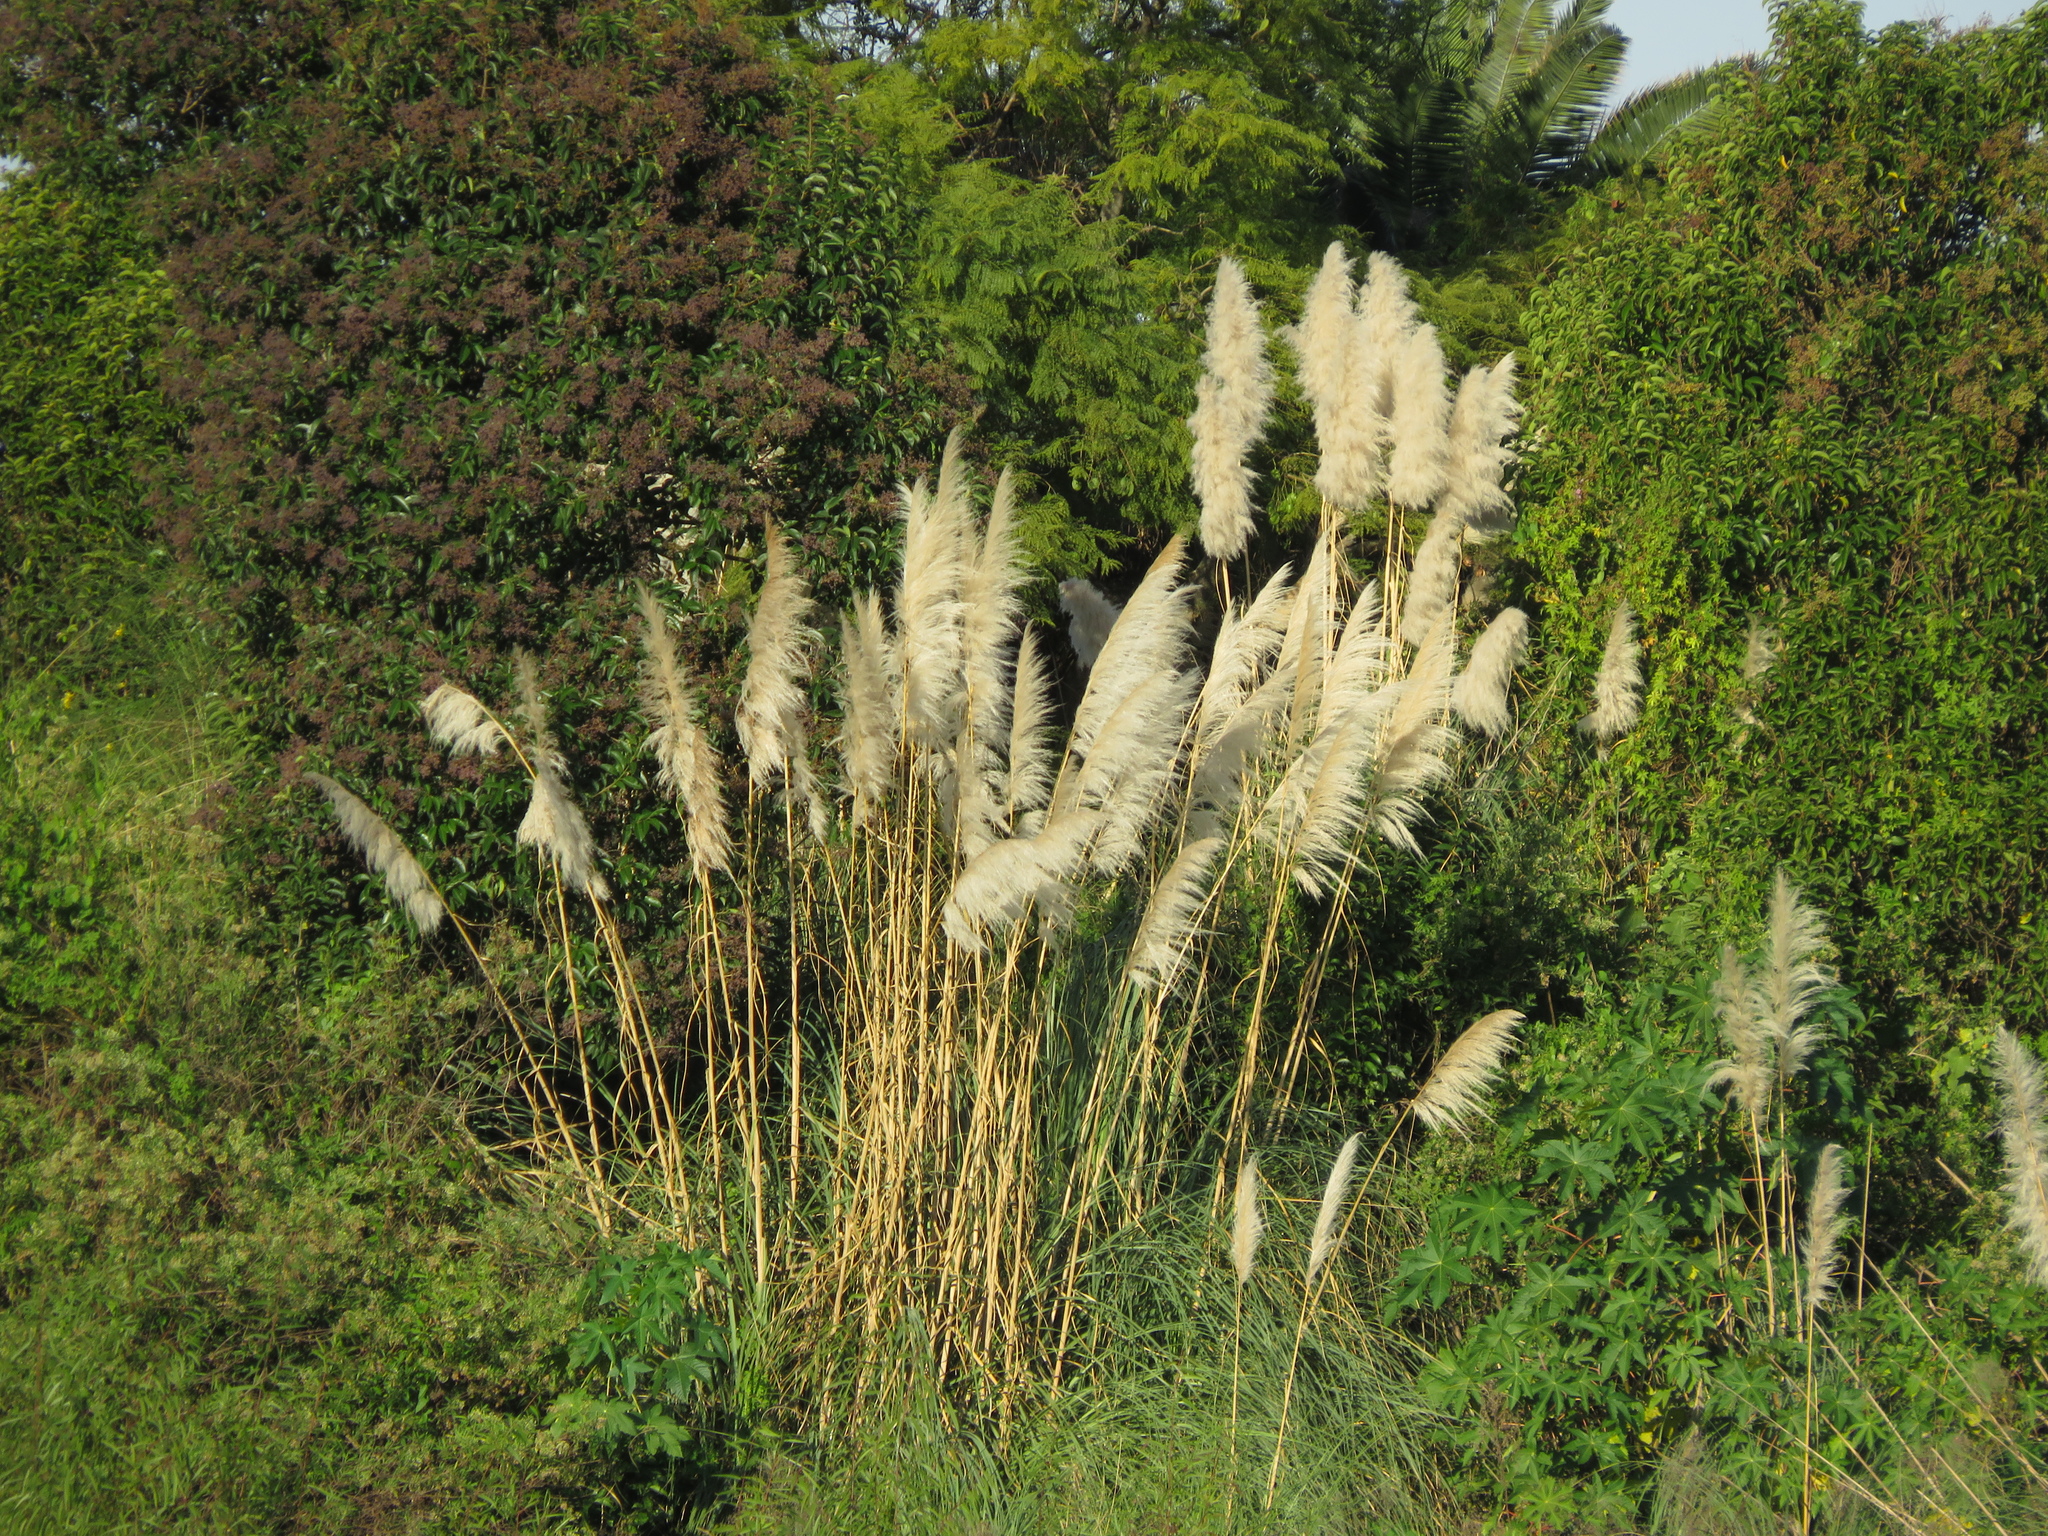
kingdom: Plantae
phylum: Tracheophyta
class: Liliopsida
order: Poales
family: Poaceae
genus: Cortaderia
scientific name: Cortaderia selloana
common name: Uruguayan pampas grass
